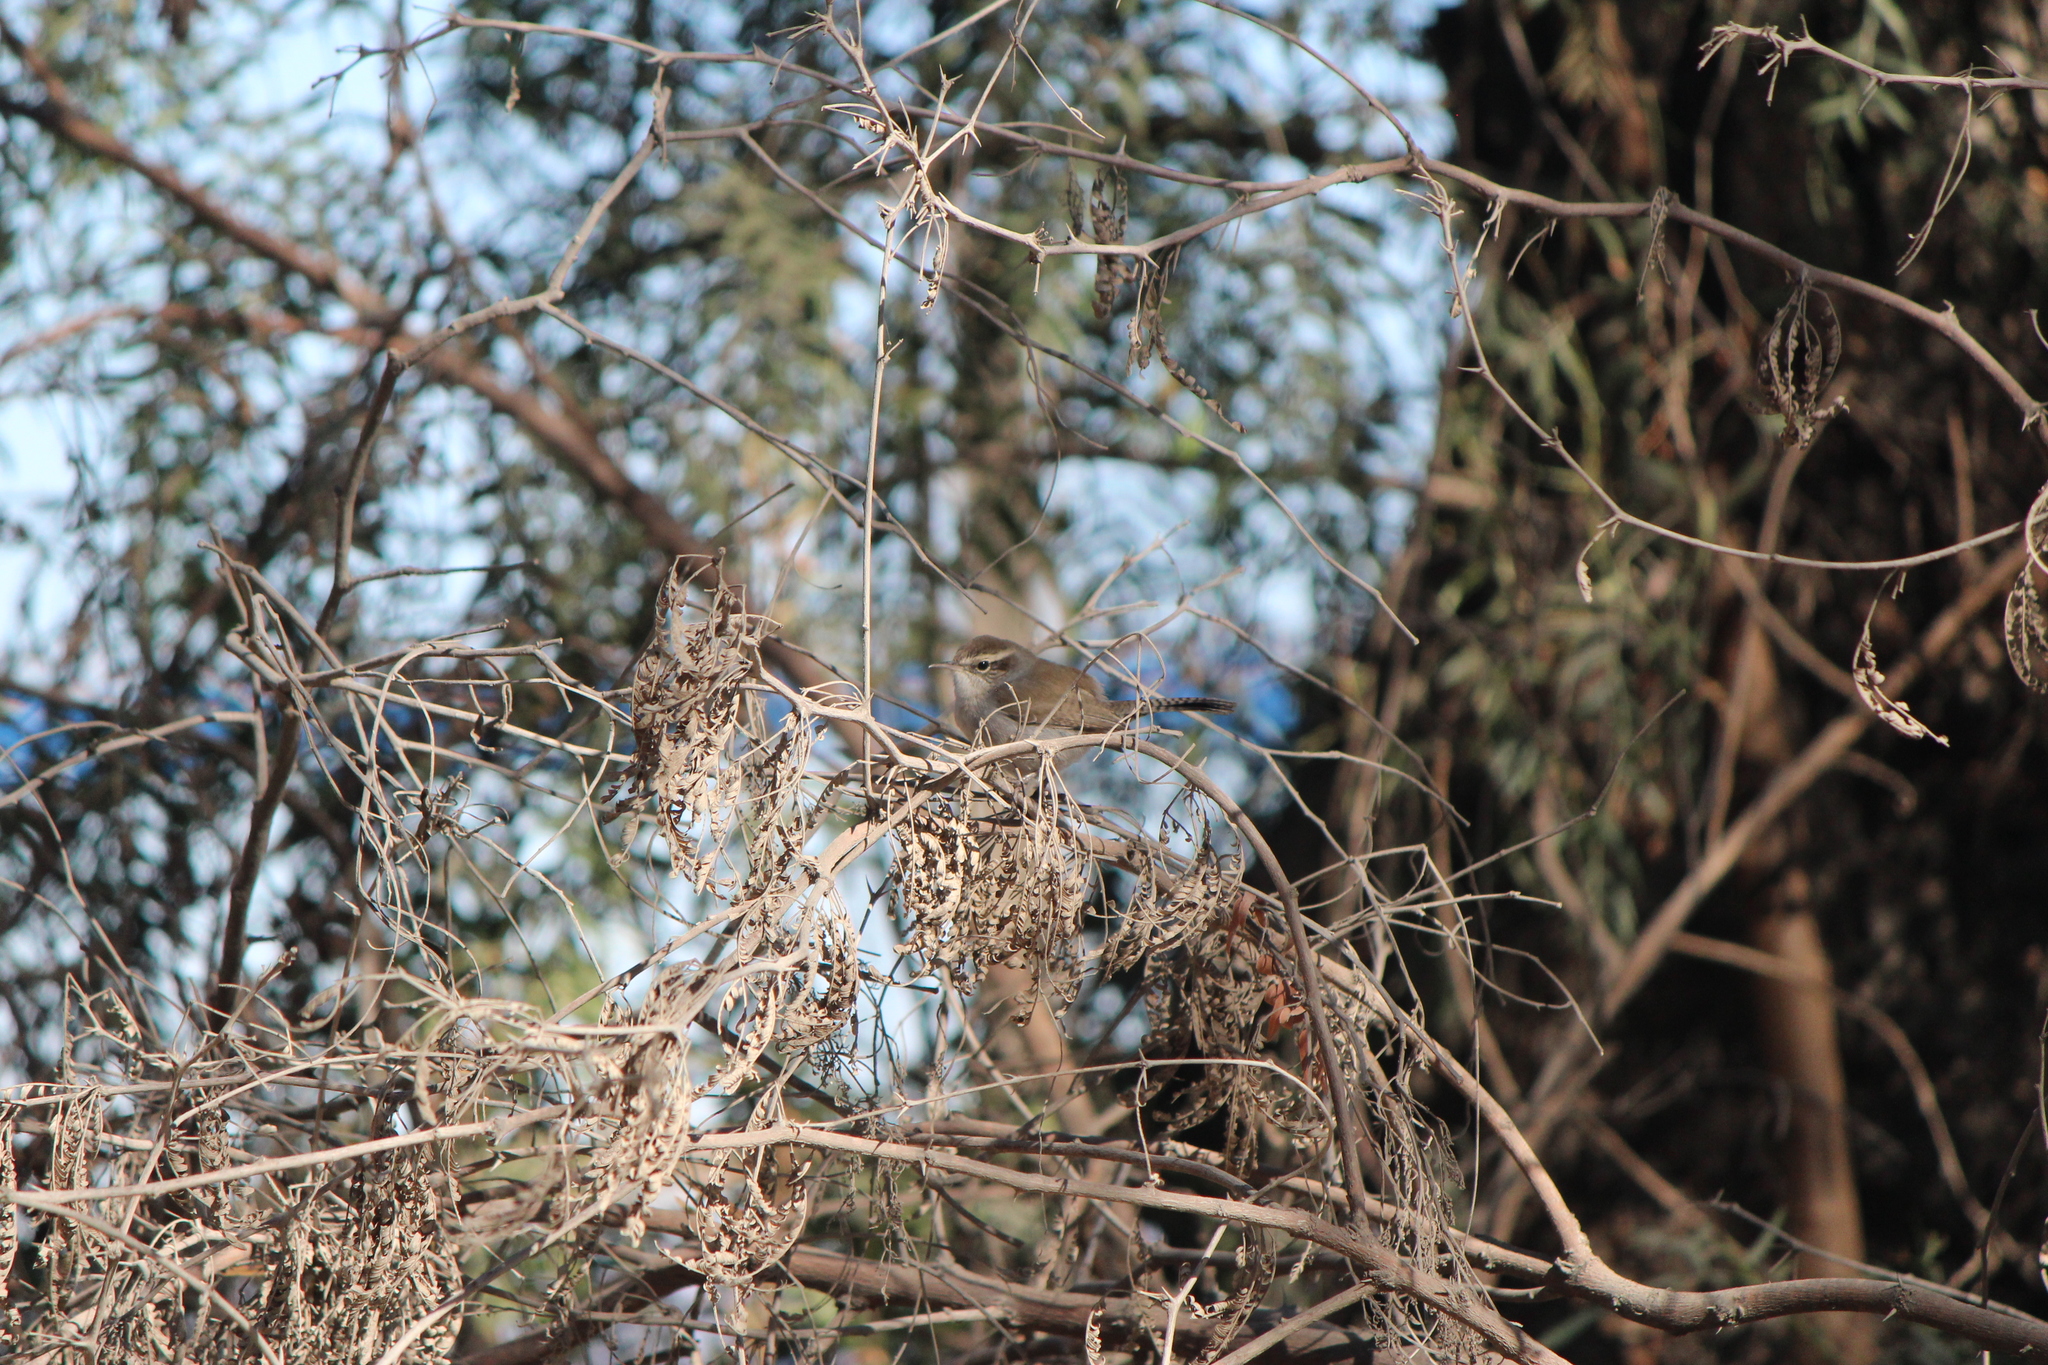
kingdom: Animalia
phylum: Chordata
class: Aves
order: Passeriformes
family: Troglodytidae
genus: Thryomanes
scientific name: Thryomanes bewickii
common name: Bewick's wren
